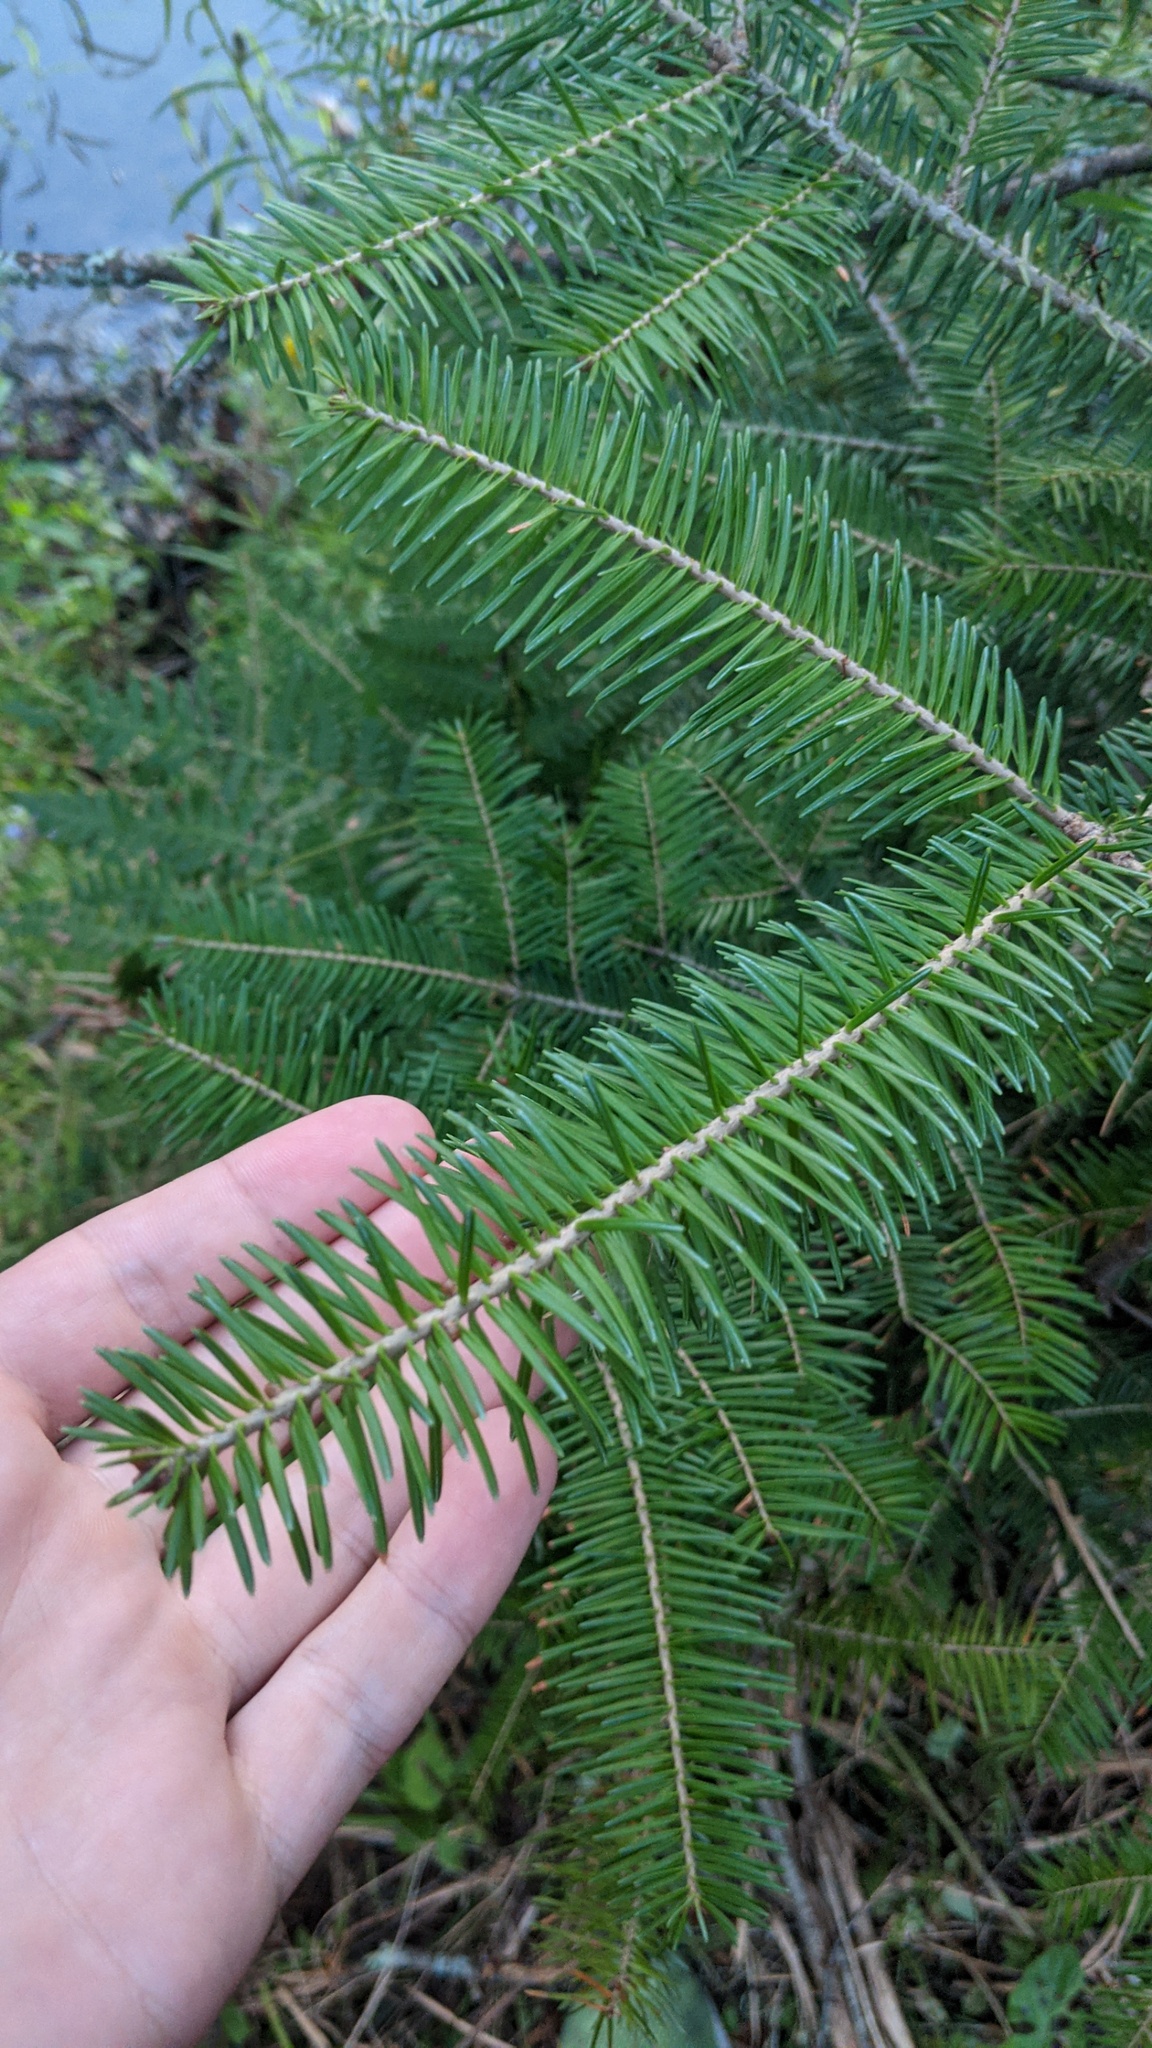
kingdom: Plantae
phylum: Tracheophyta
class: Pinopsida
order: Pinales
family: Pinaceae
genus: Abies
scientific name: Abies balsamea
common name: Balsam fir
